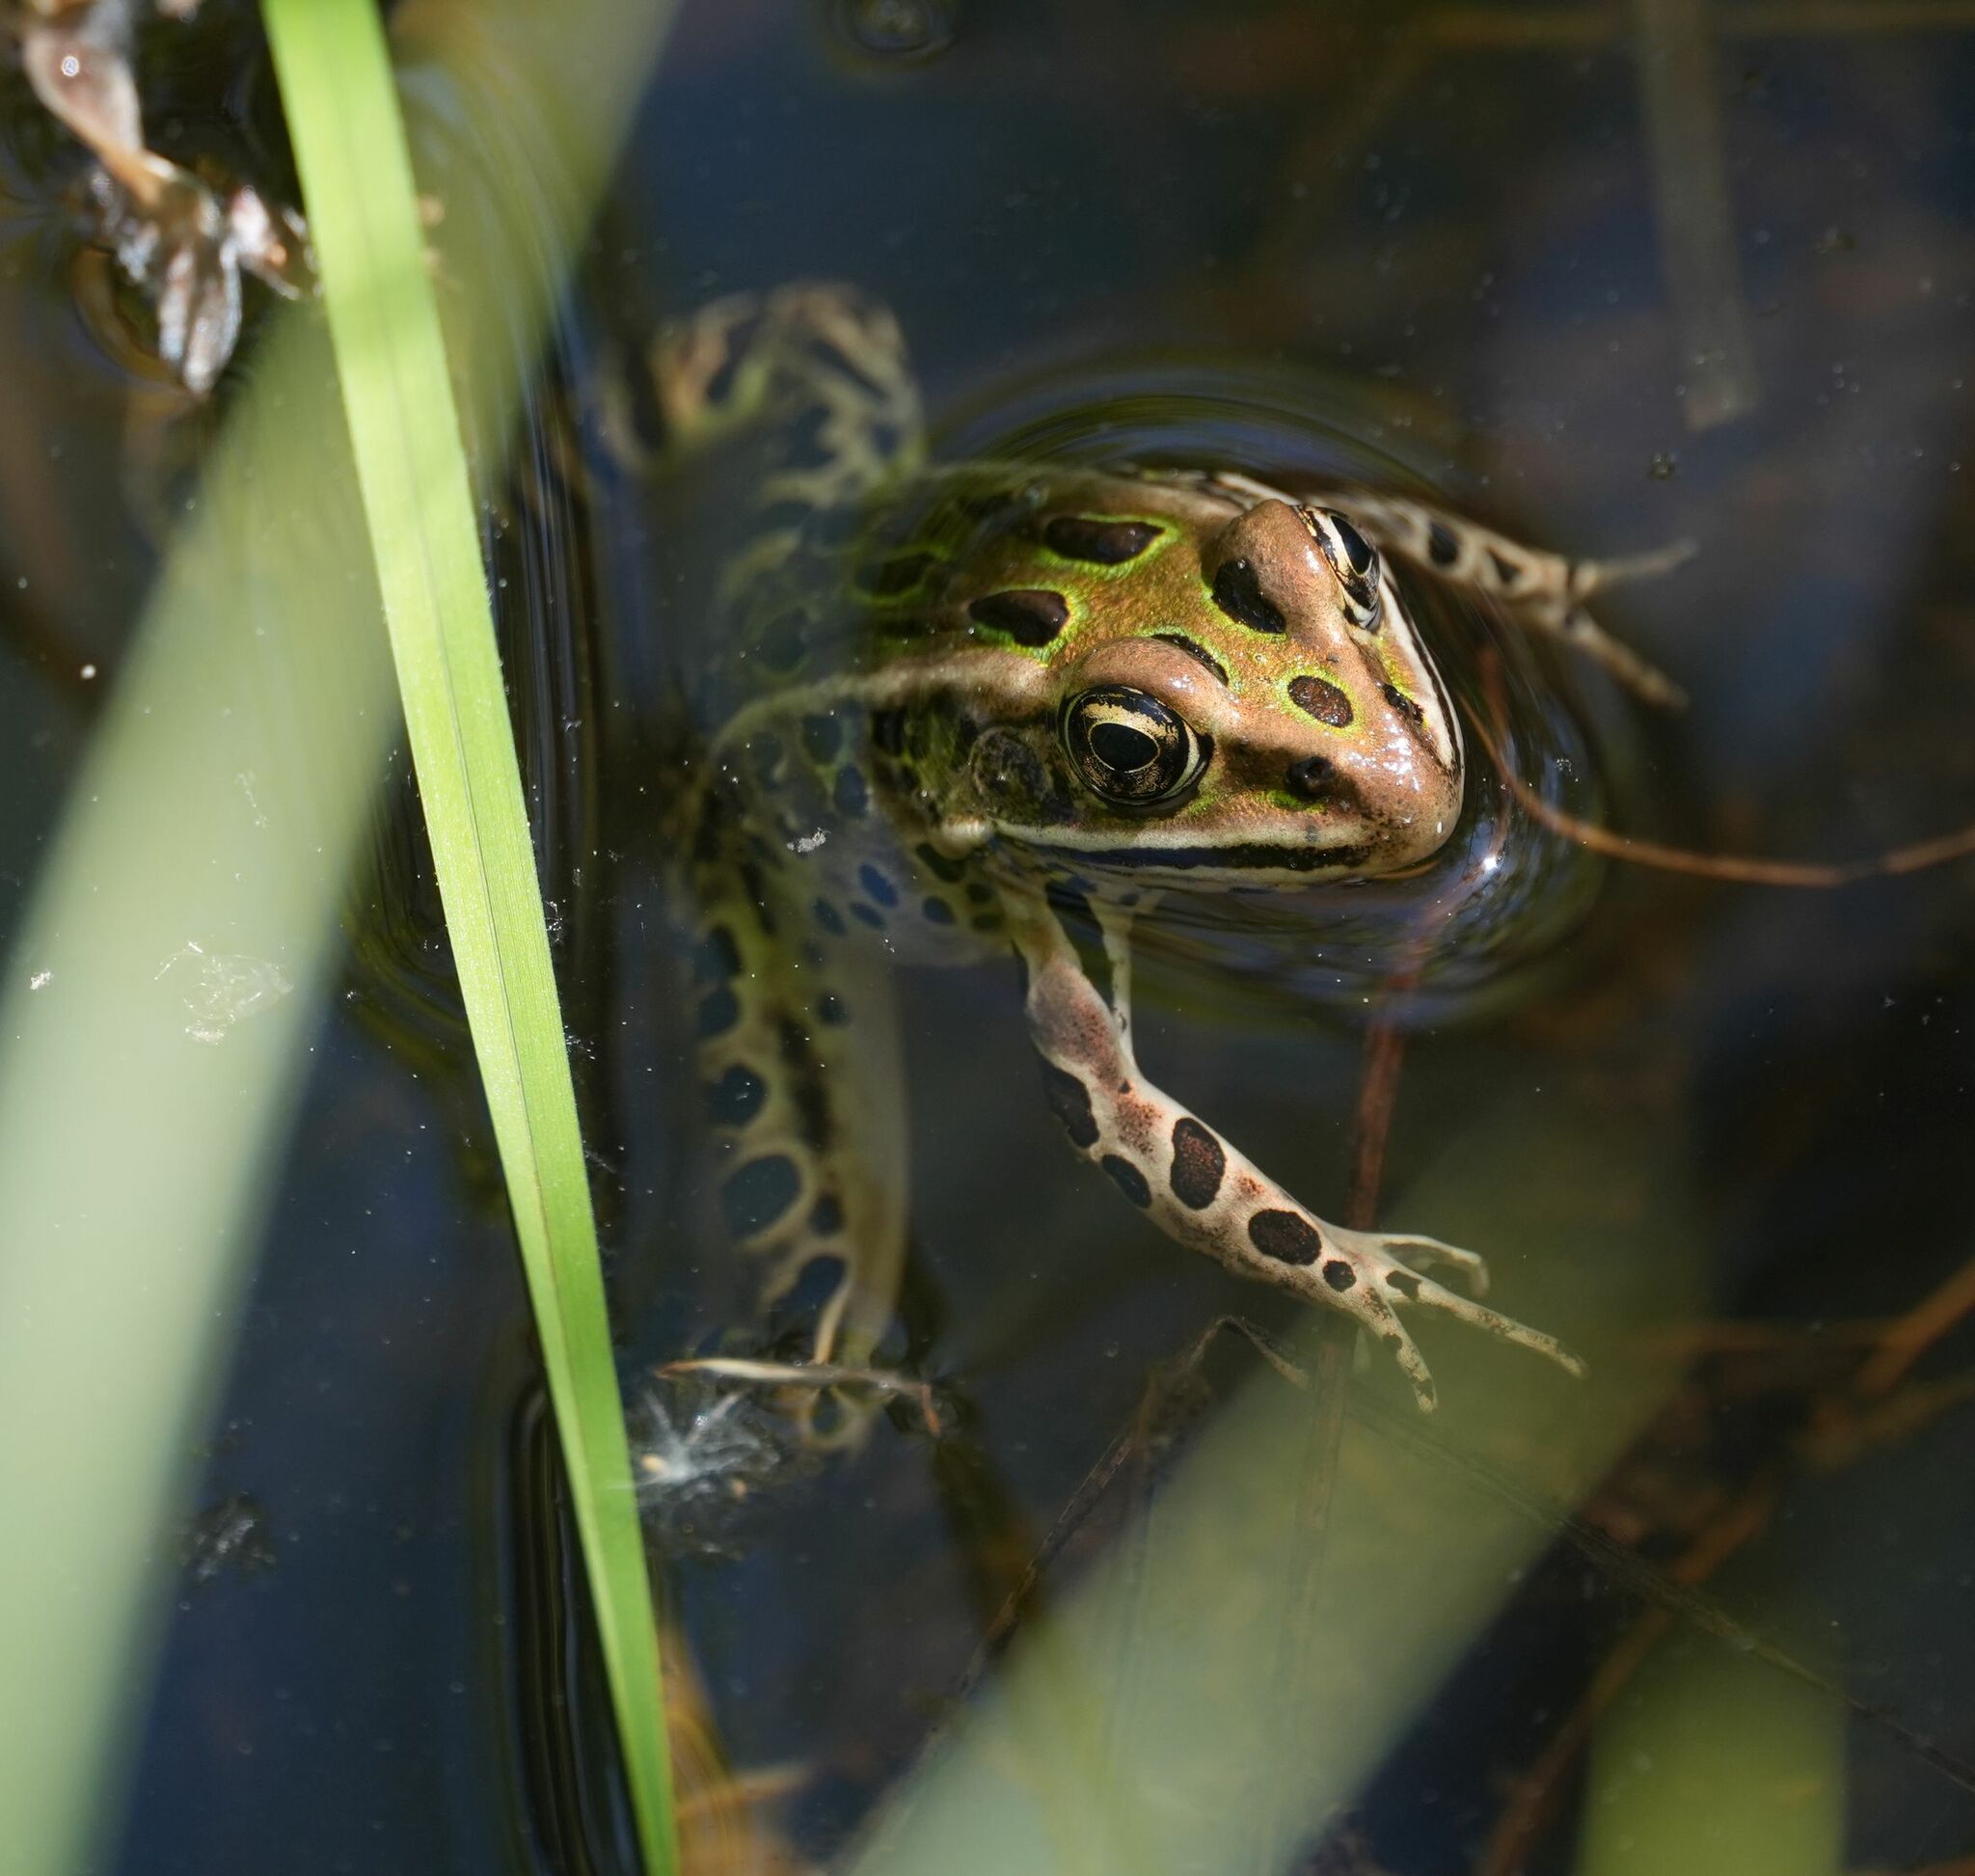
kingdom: Animalia
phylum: Chordata
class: Amphibia
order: Anura
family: Ranidae
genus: Lithobates
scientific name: Lithobates pipiens
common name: Northern leopard frog
